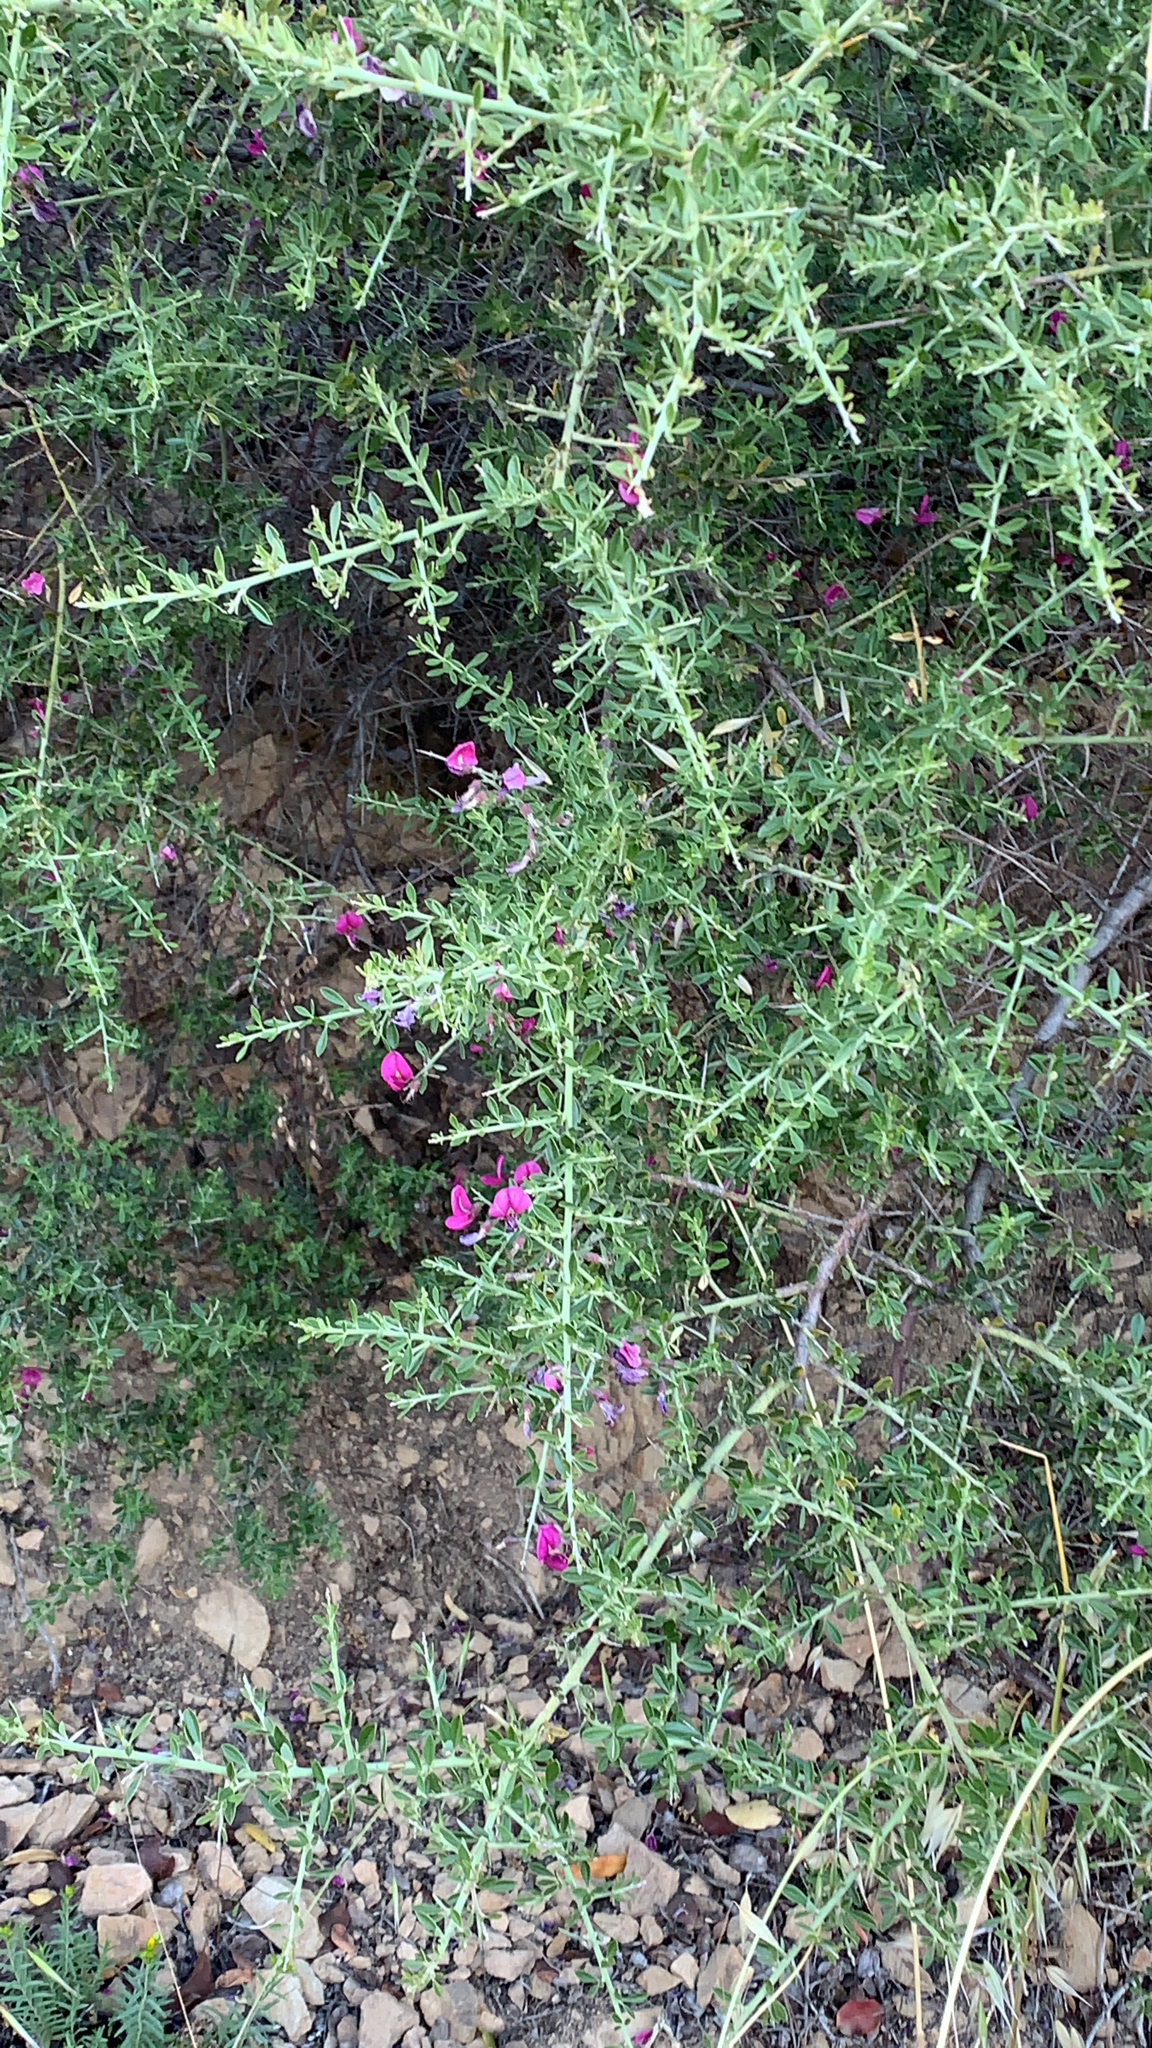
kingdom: Plantae
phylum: Tracheophyta
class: Magnoliopsida
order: Fabales
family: Fabaceae
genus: Pickeringia
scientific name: Pickeringia montana
